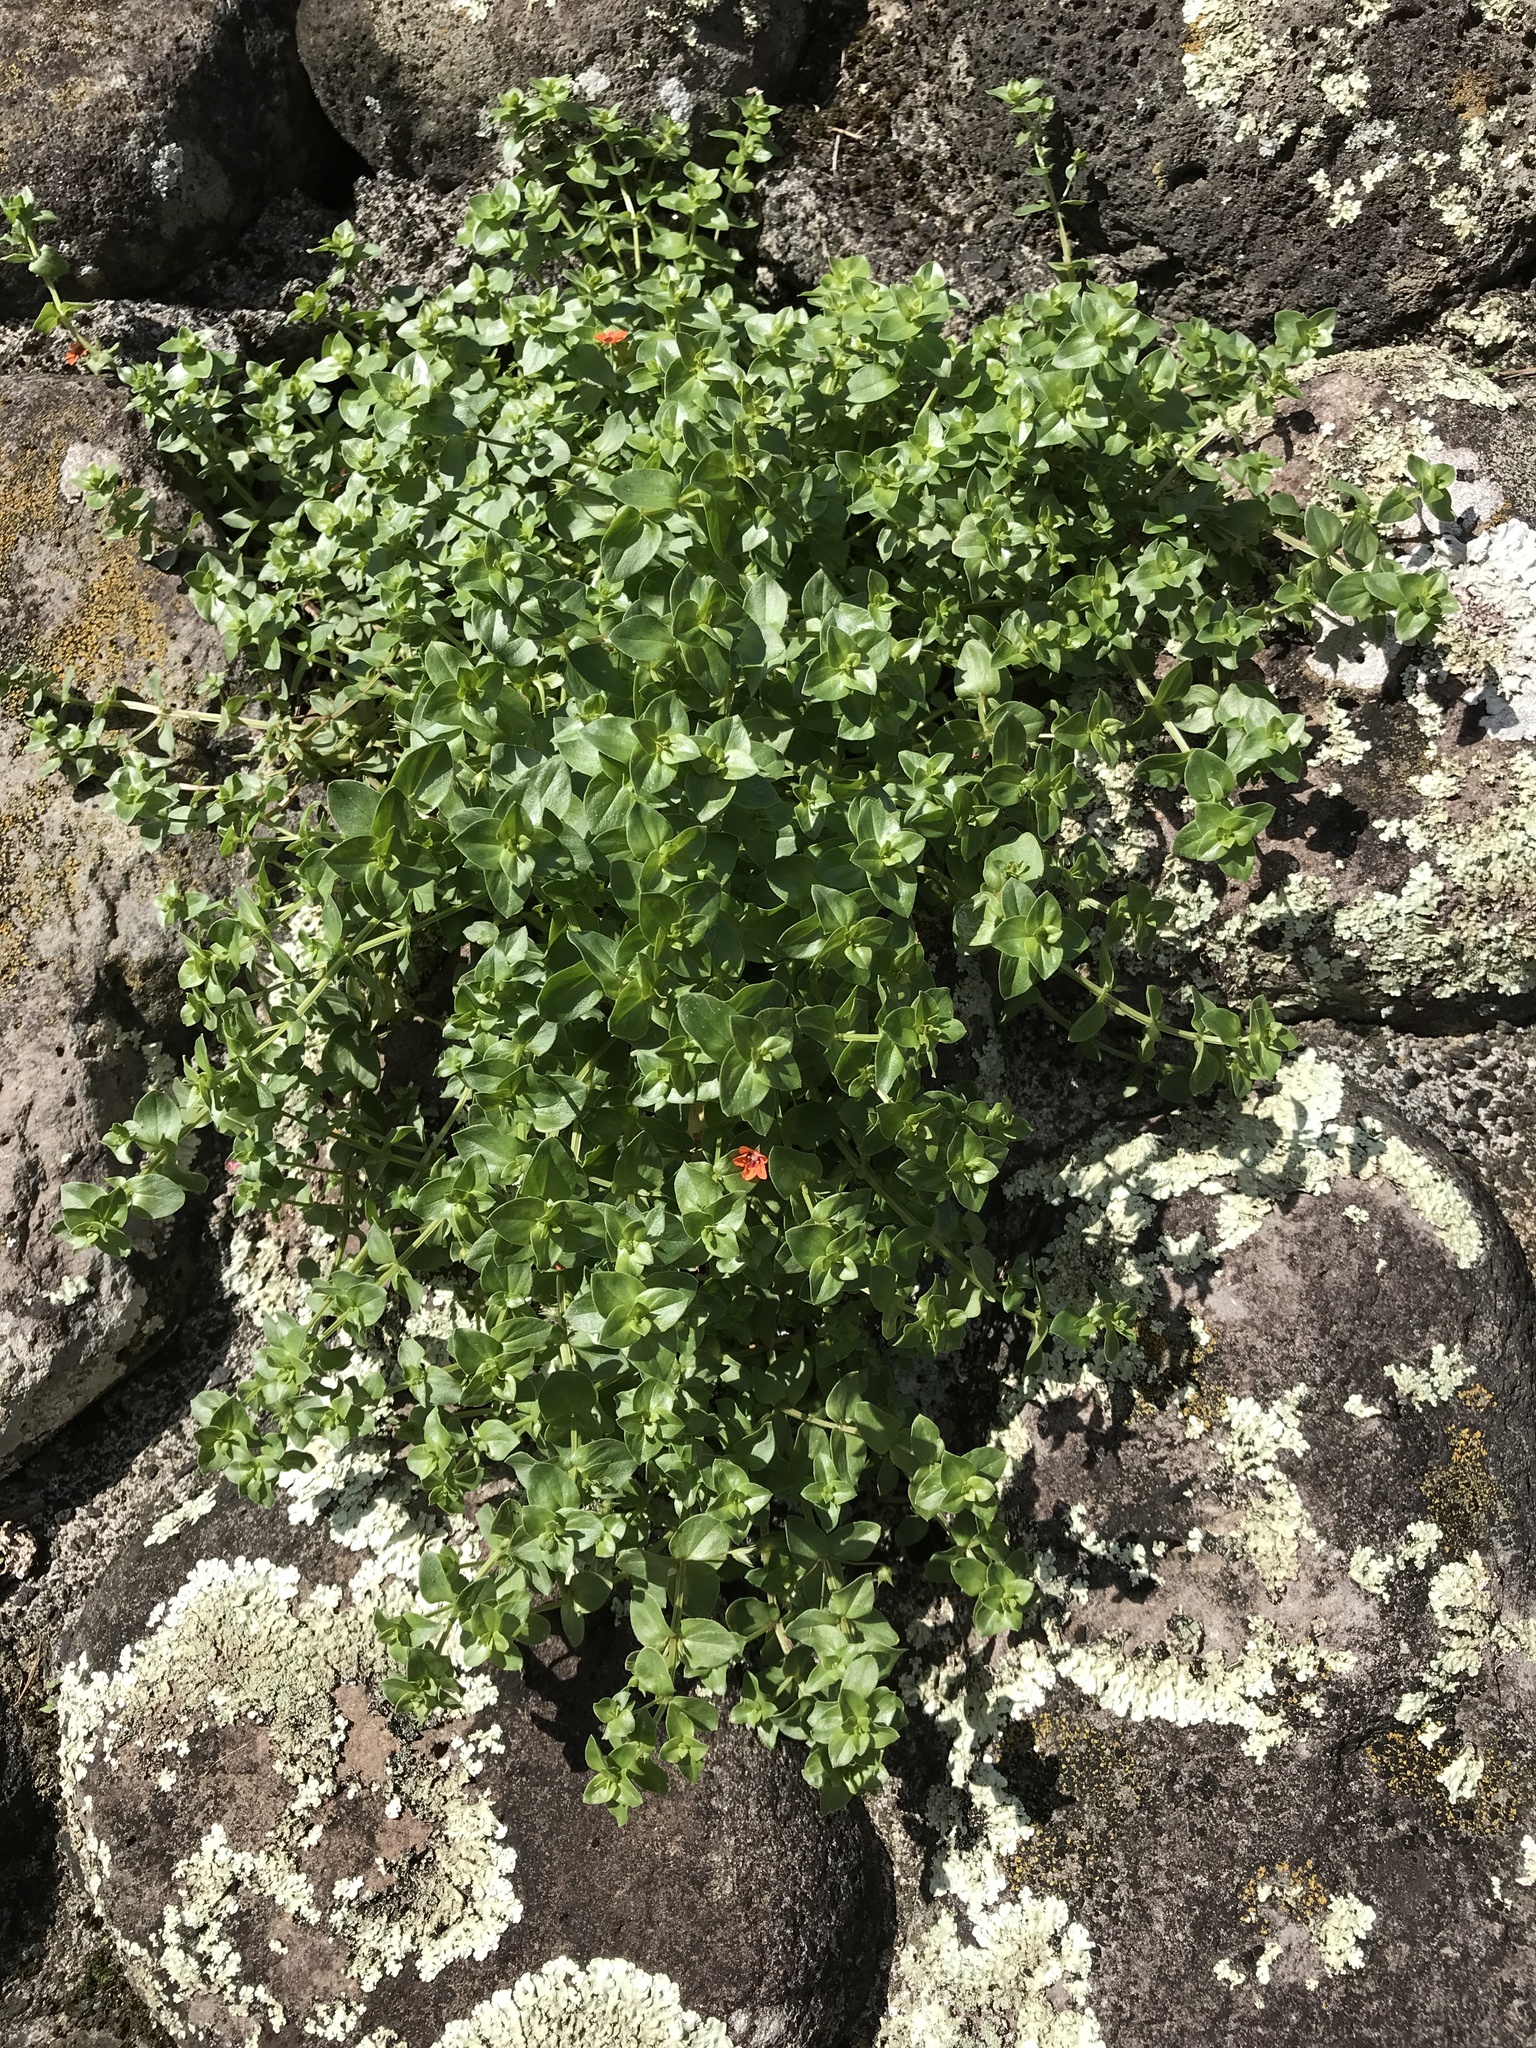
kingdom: Plantae
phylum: Tracheophyta
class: Magnoliopsida
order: Ericales
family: Primulaceae
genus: Lysimachia
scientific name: Lysimachia arvensis
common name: Scarlet pimpernel
